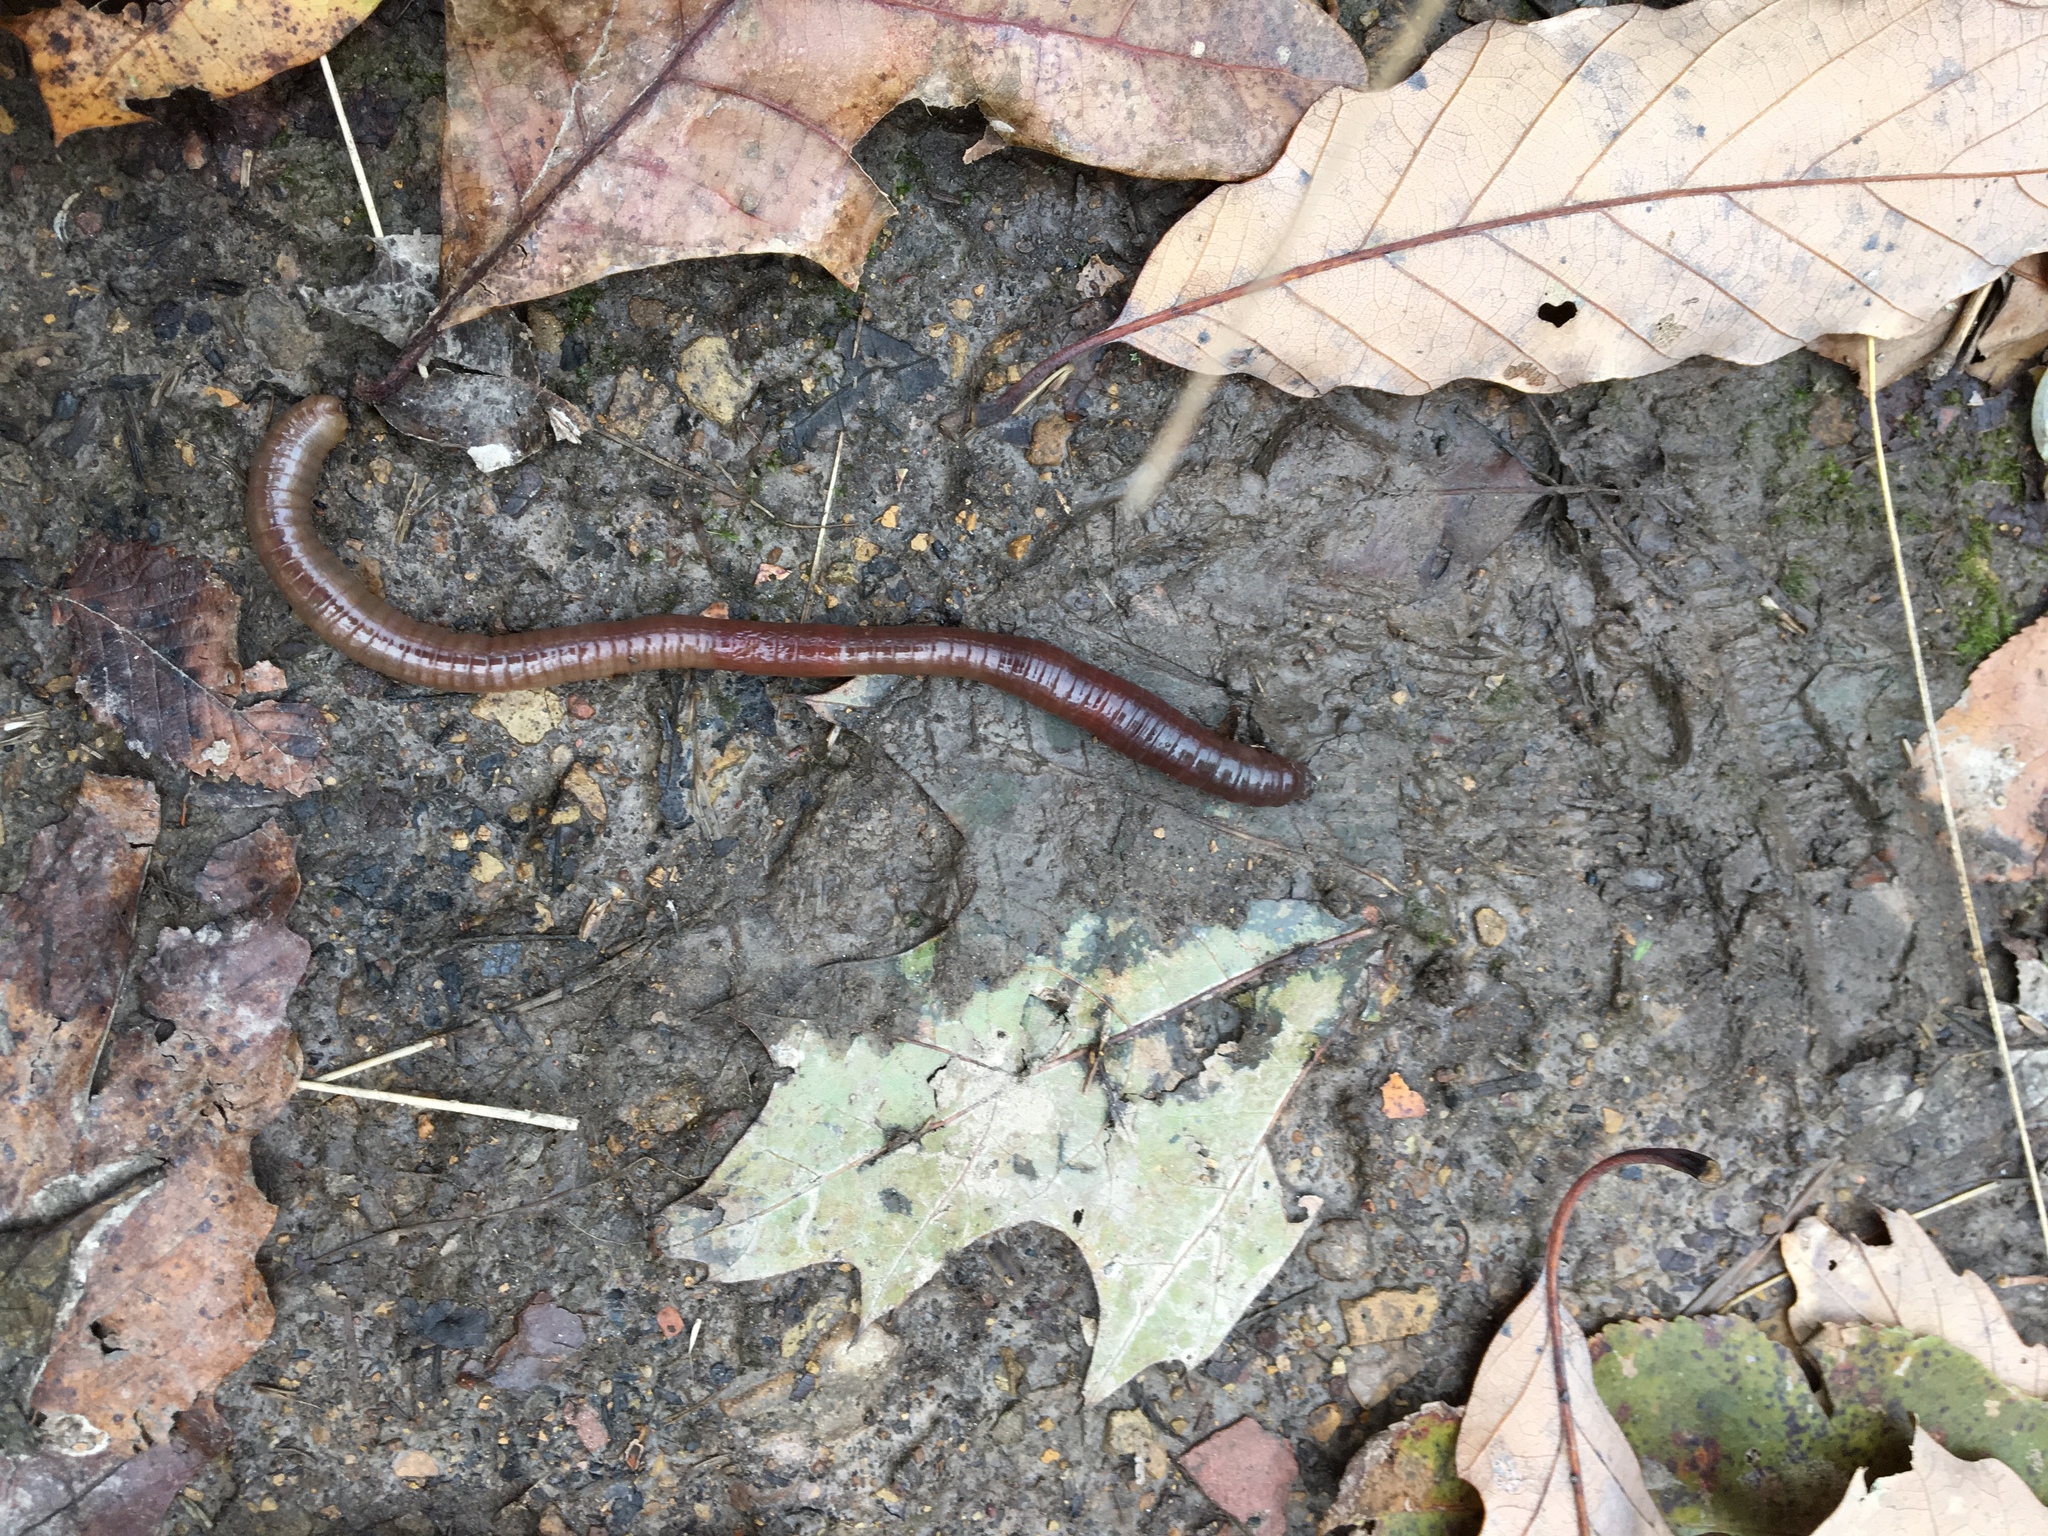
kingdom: Animalia
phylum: Annelida
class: Clitellata
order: Crassiclitellata
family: Lumbricidae
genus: Lumbricus
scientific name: Lumbricus terrestris
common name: Common earthworm
